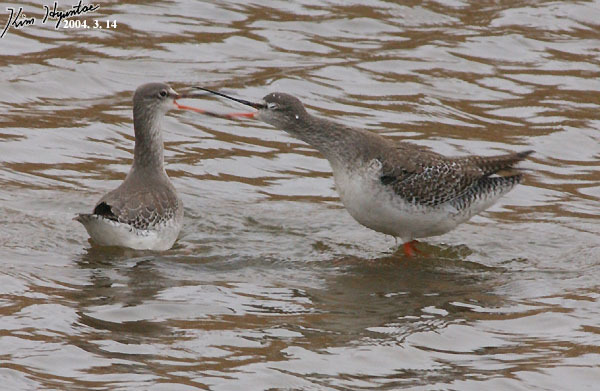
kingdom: Animalia
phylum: Chordata
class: Aves
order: Charadriiformes
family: Scolopacidae
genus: Tringa
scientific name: Tringa erythropus
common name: Spotted redshank
